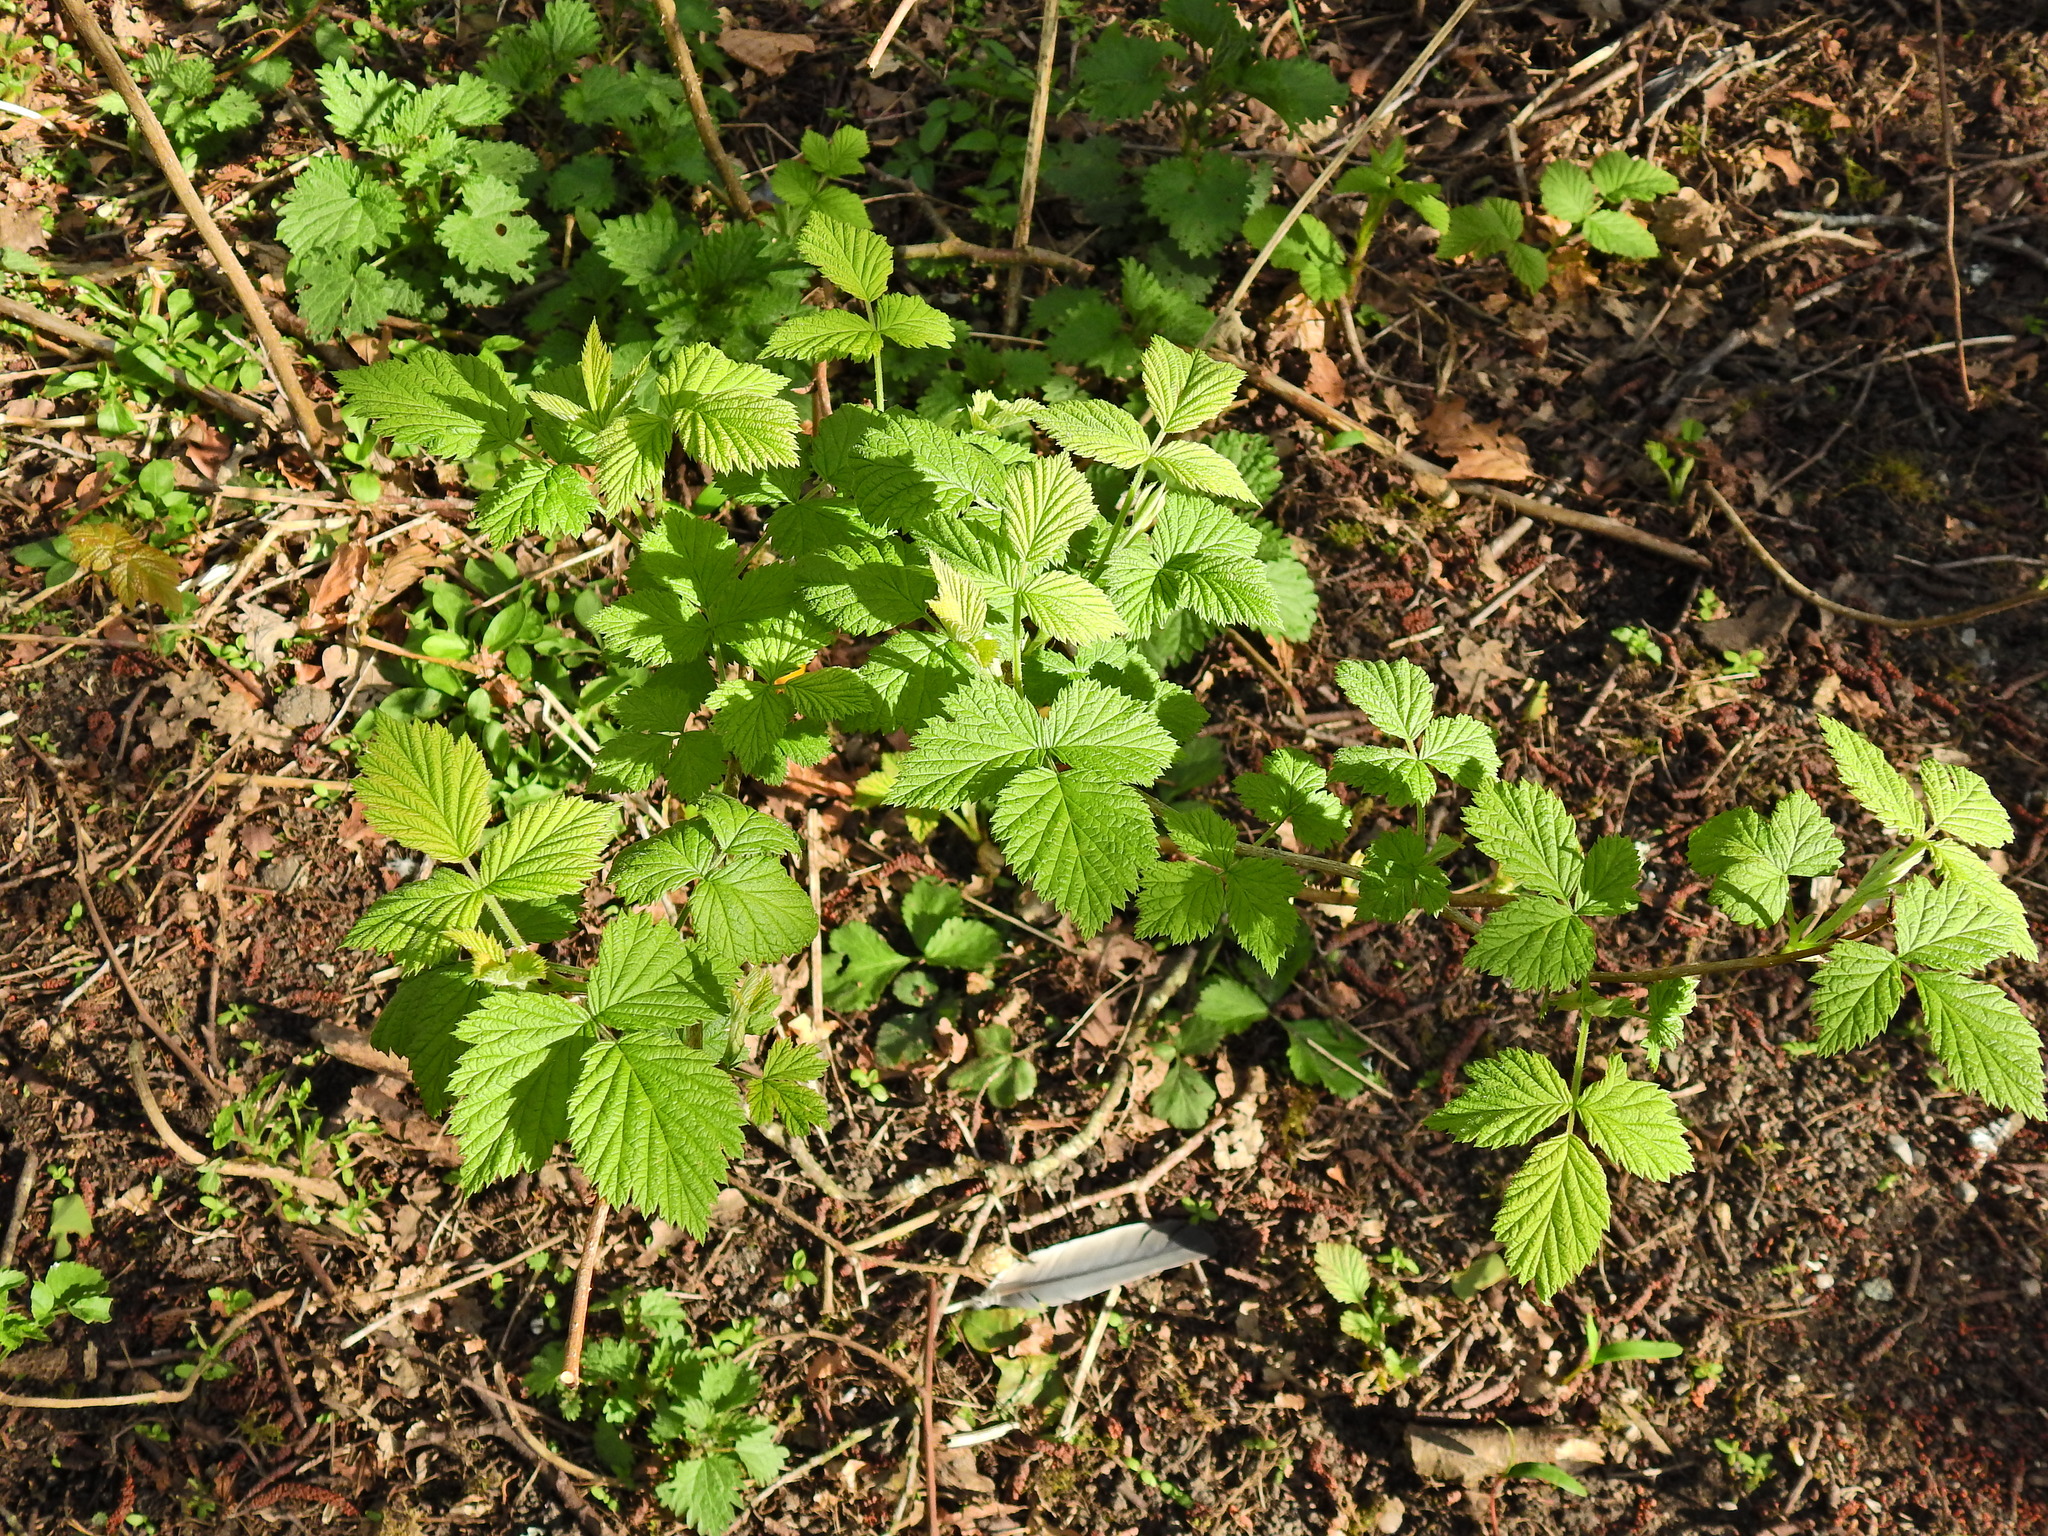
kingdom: Plantae
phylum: Tracheophyta
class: Magnoliopsida
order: Rosales
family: Rosaceae
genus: Rubus
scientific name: Rubus idaeus
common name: Raspberry
